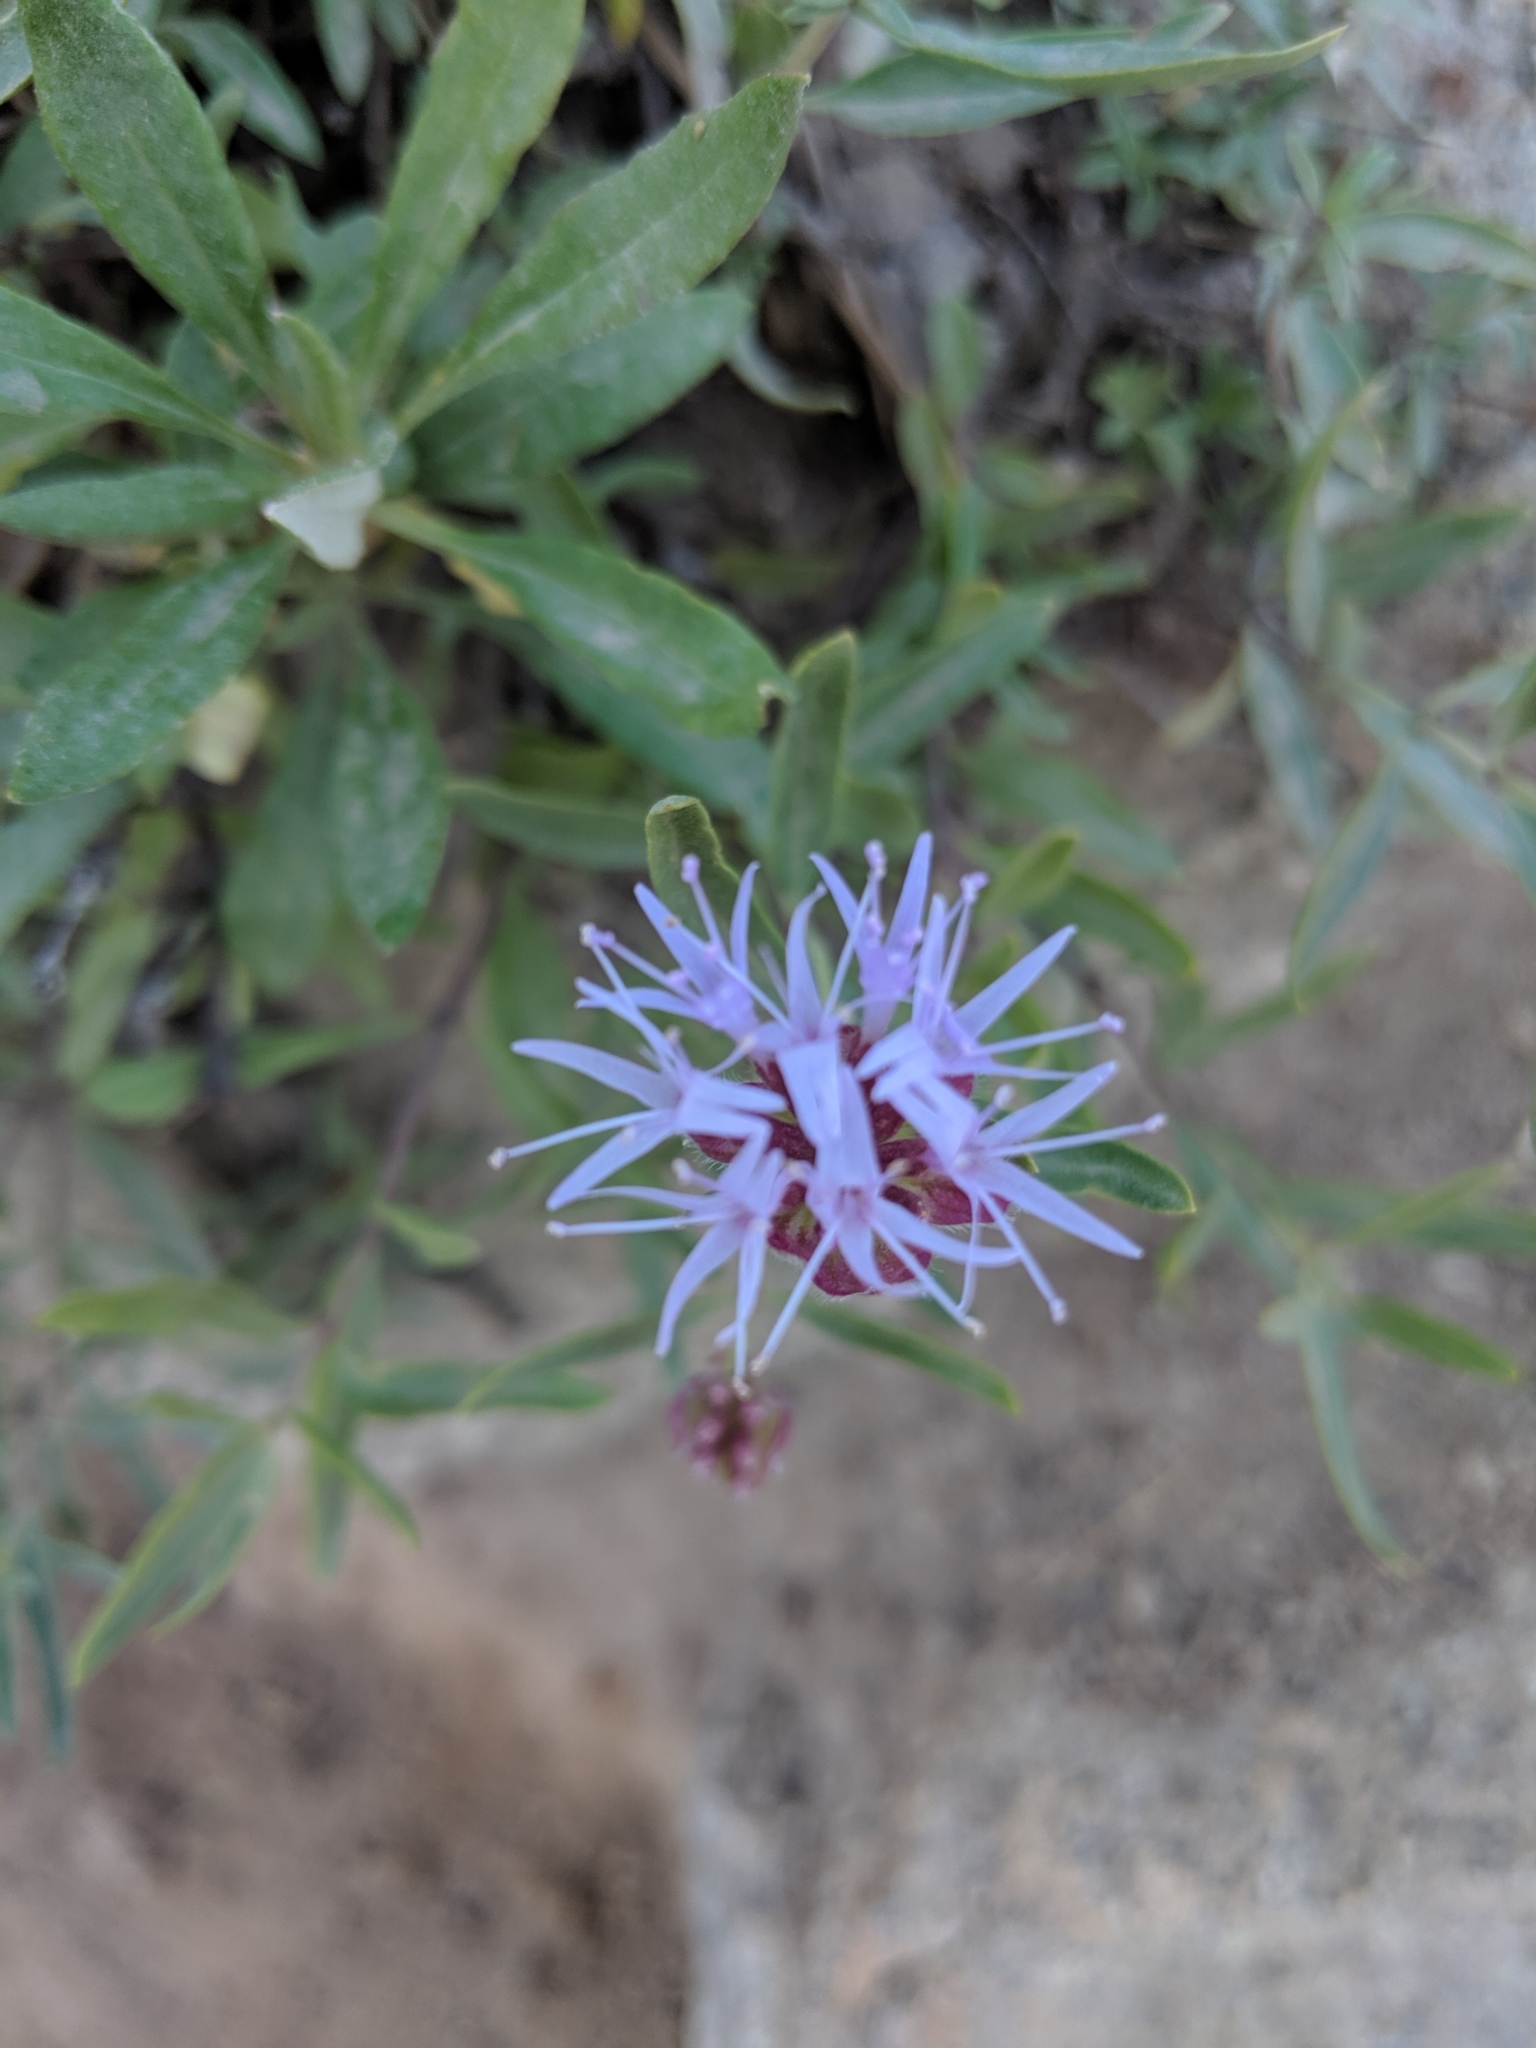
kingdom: Plantae
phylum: Tracheophyta
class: Magnoliopsida
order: Lamiales
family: Lamiaceae
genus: Monardella
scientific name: Monardella odoratissima
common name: Pacific monardella
